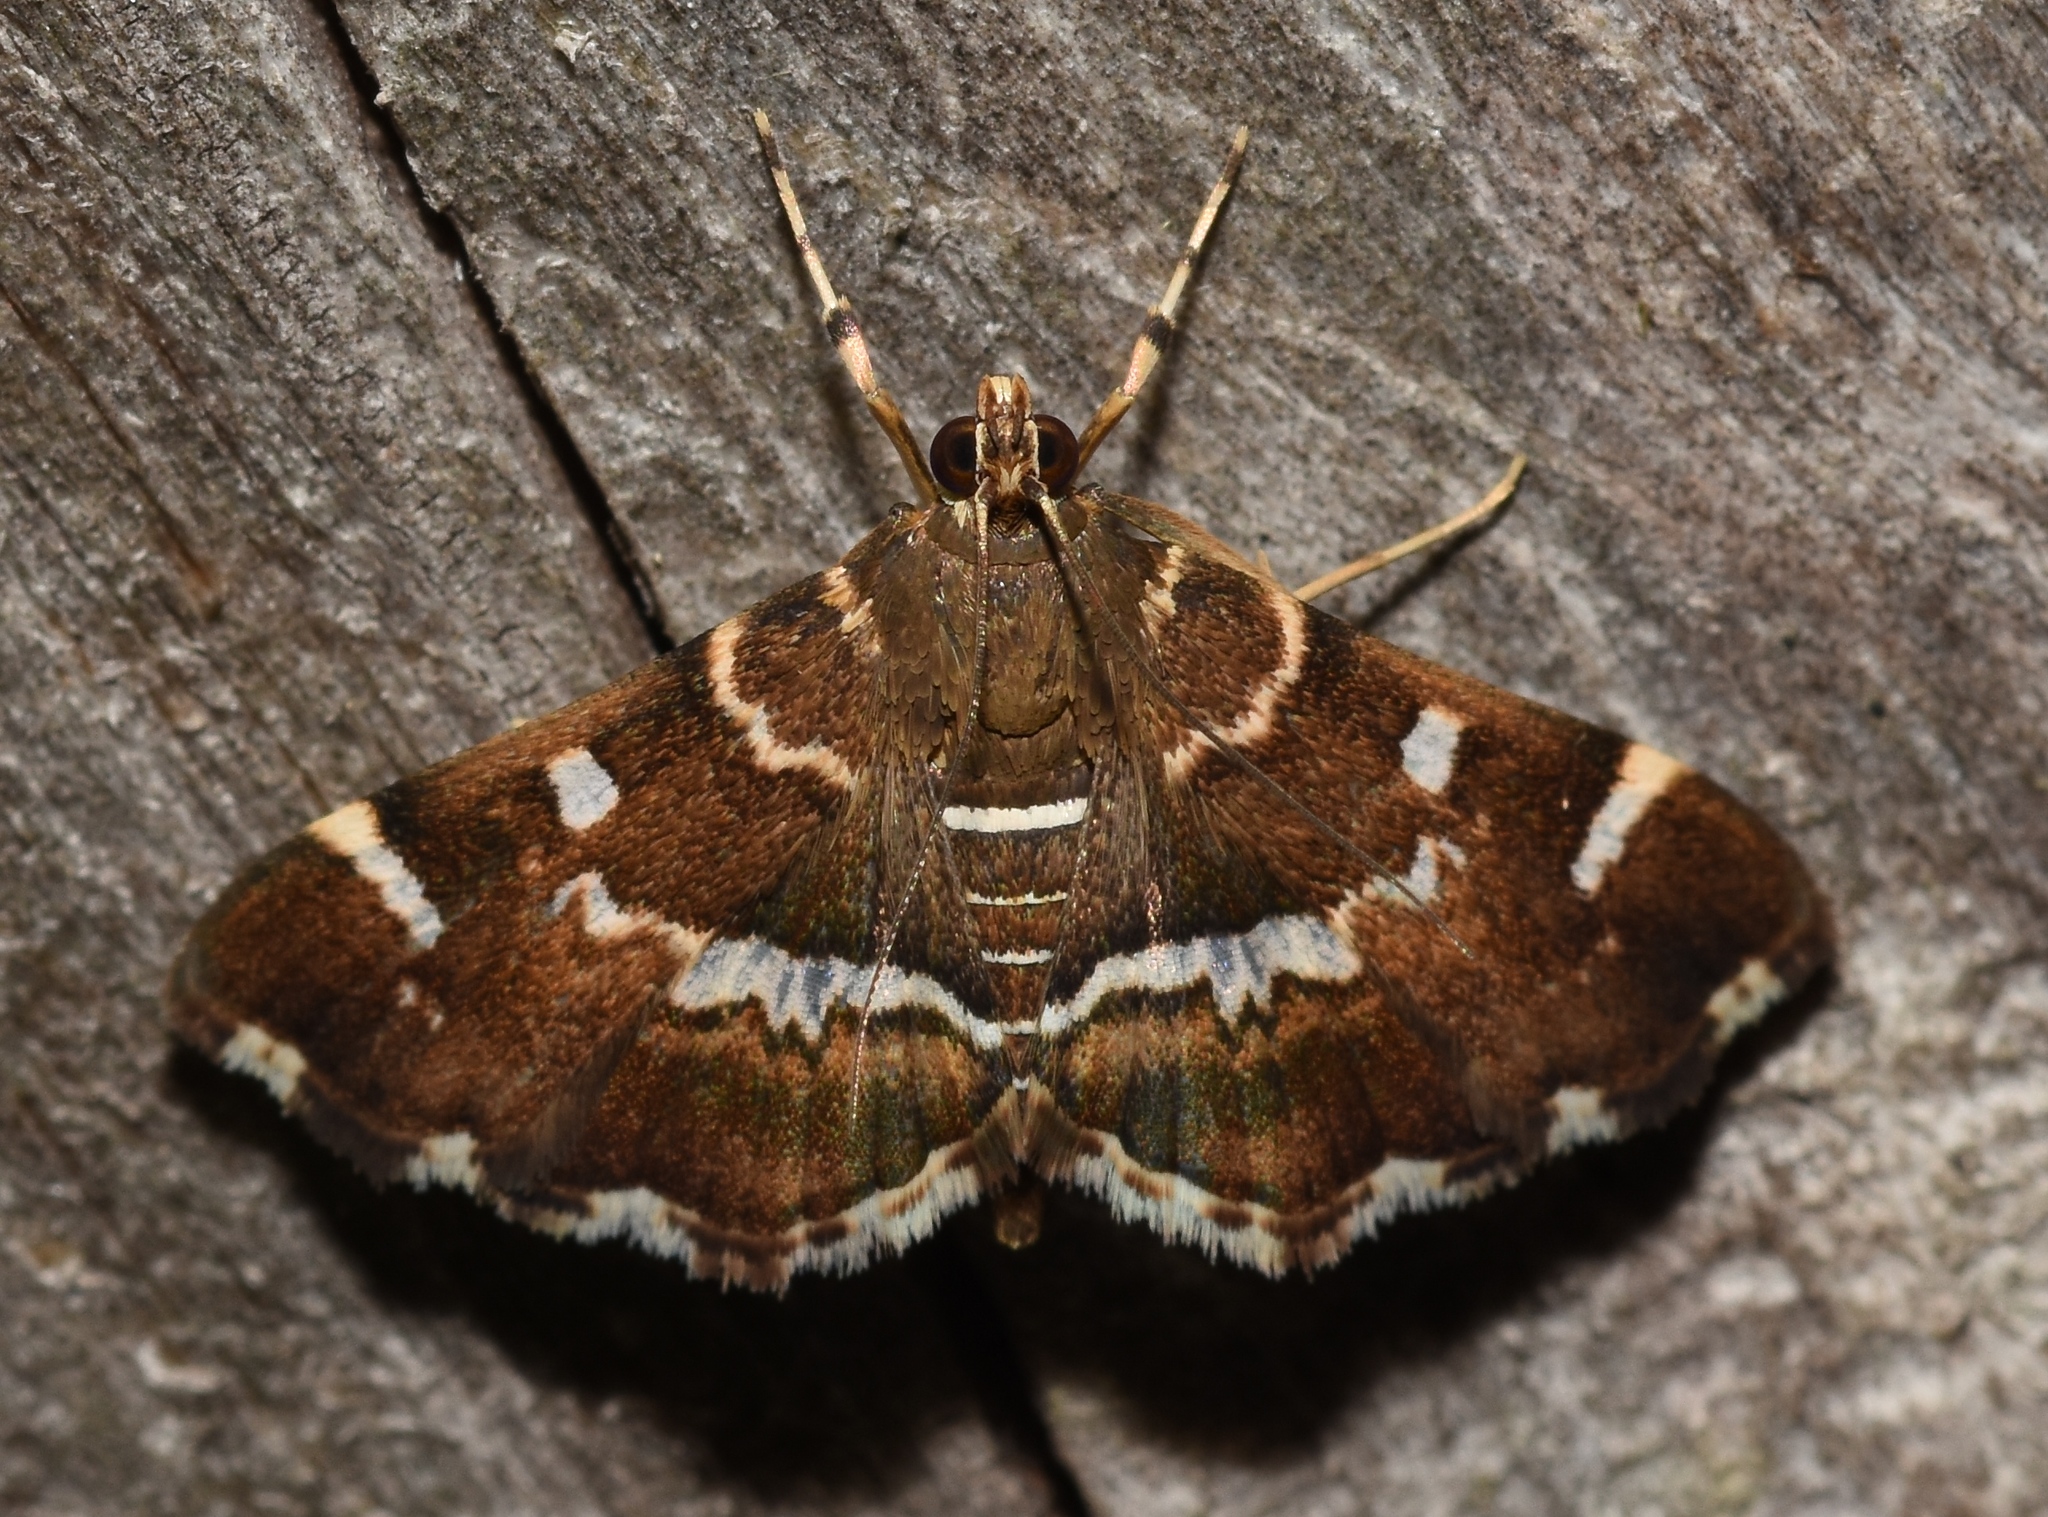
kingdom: Animalia
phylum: Arthropoda
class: Insecta
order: Lepidoptera
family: Crambidae
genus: Hymenia
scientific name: Hymenia perspectalis
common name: Spotted beet webworm
